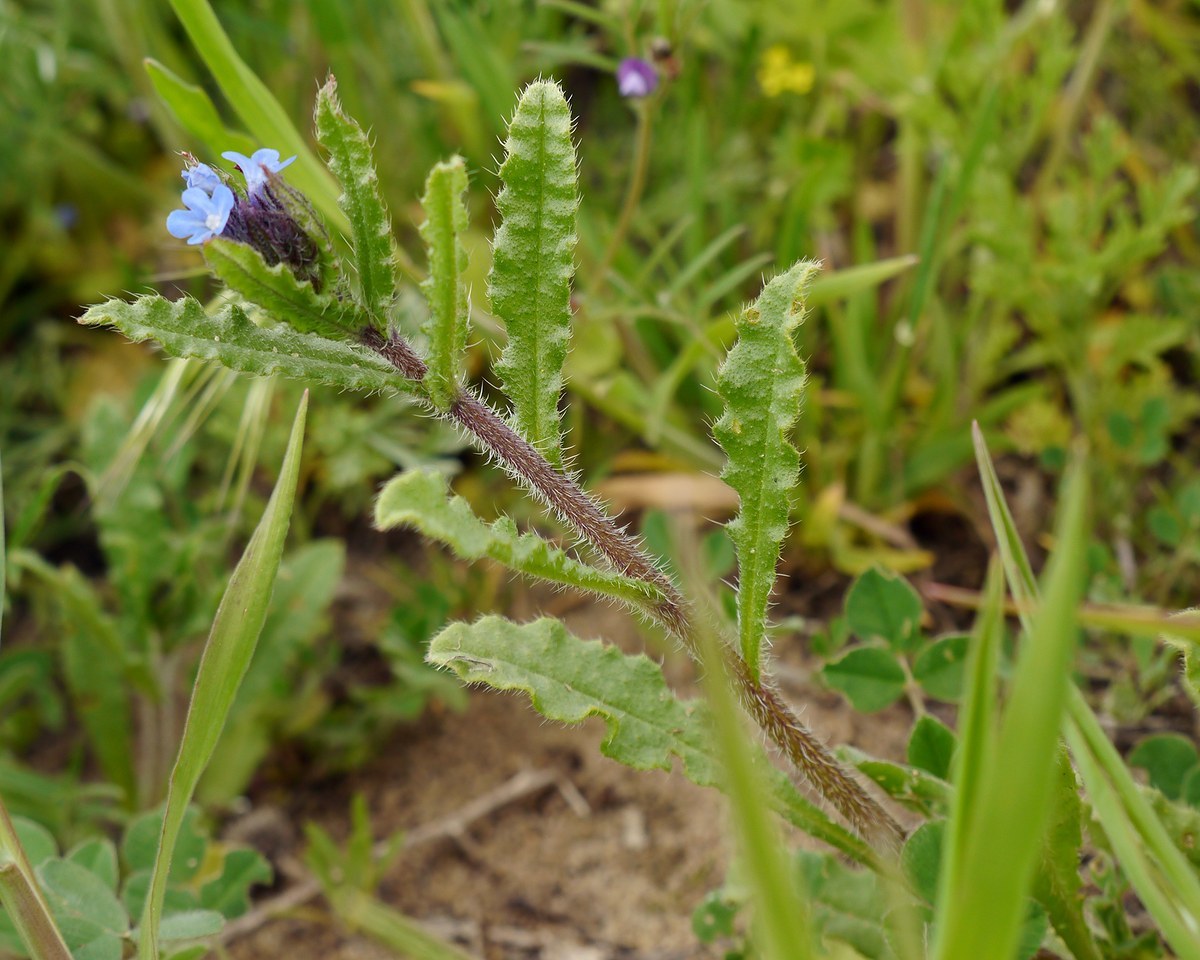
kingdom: Plantae
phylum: Tracheophyta
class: Magnoliopsida
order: Boraginales
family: Boraginaceae
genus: Lycopsis
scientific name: Lycopsis arvensis
